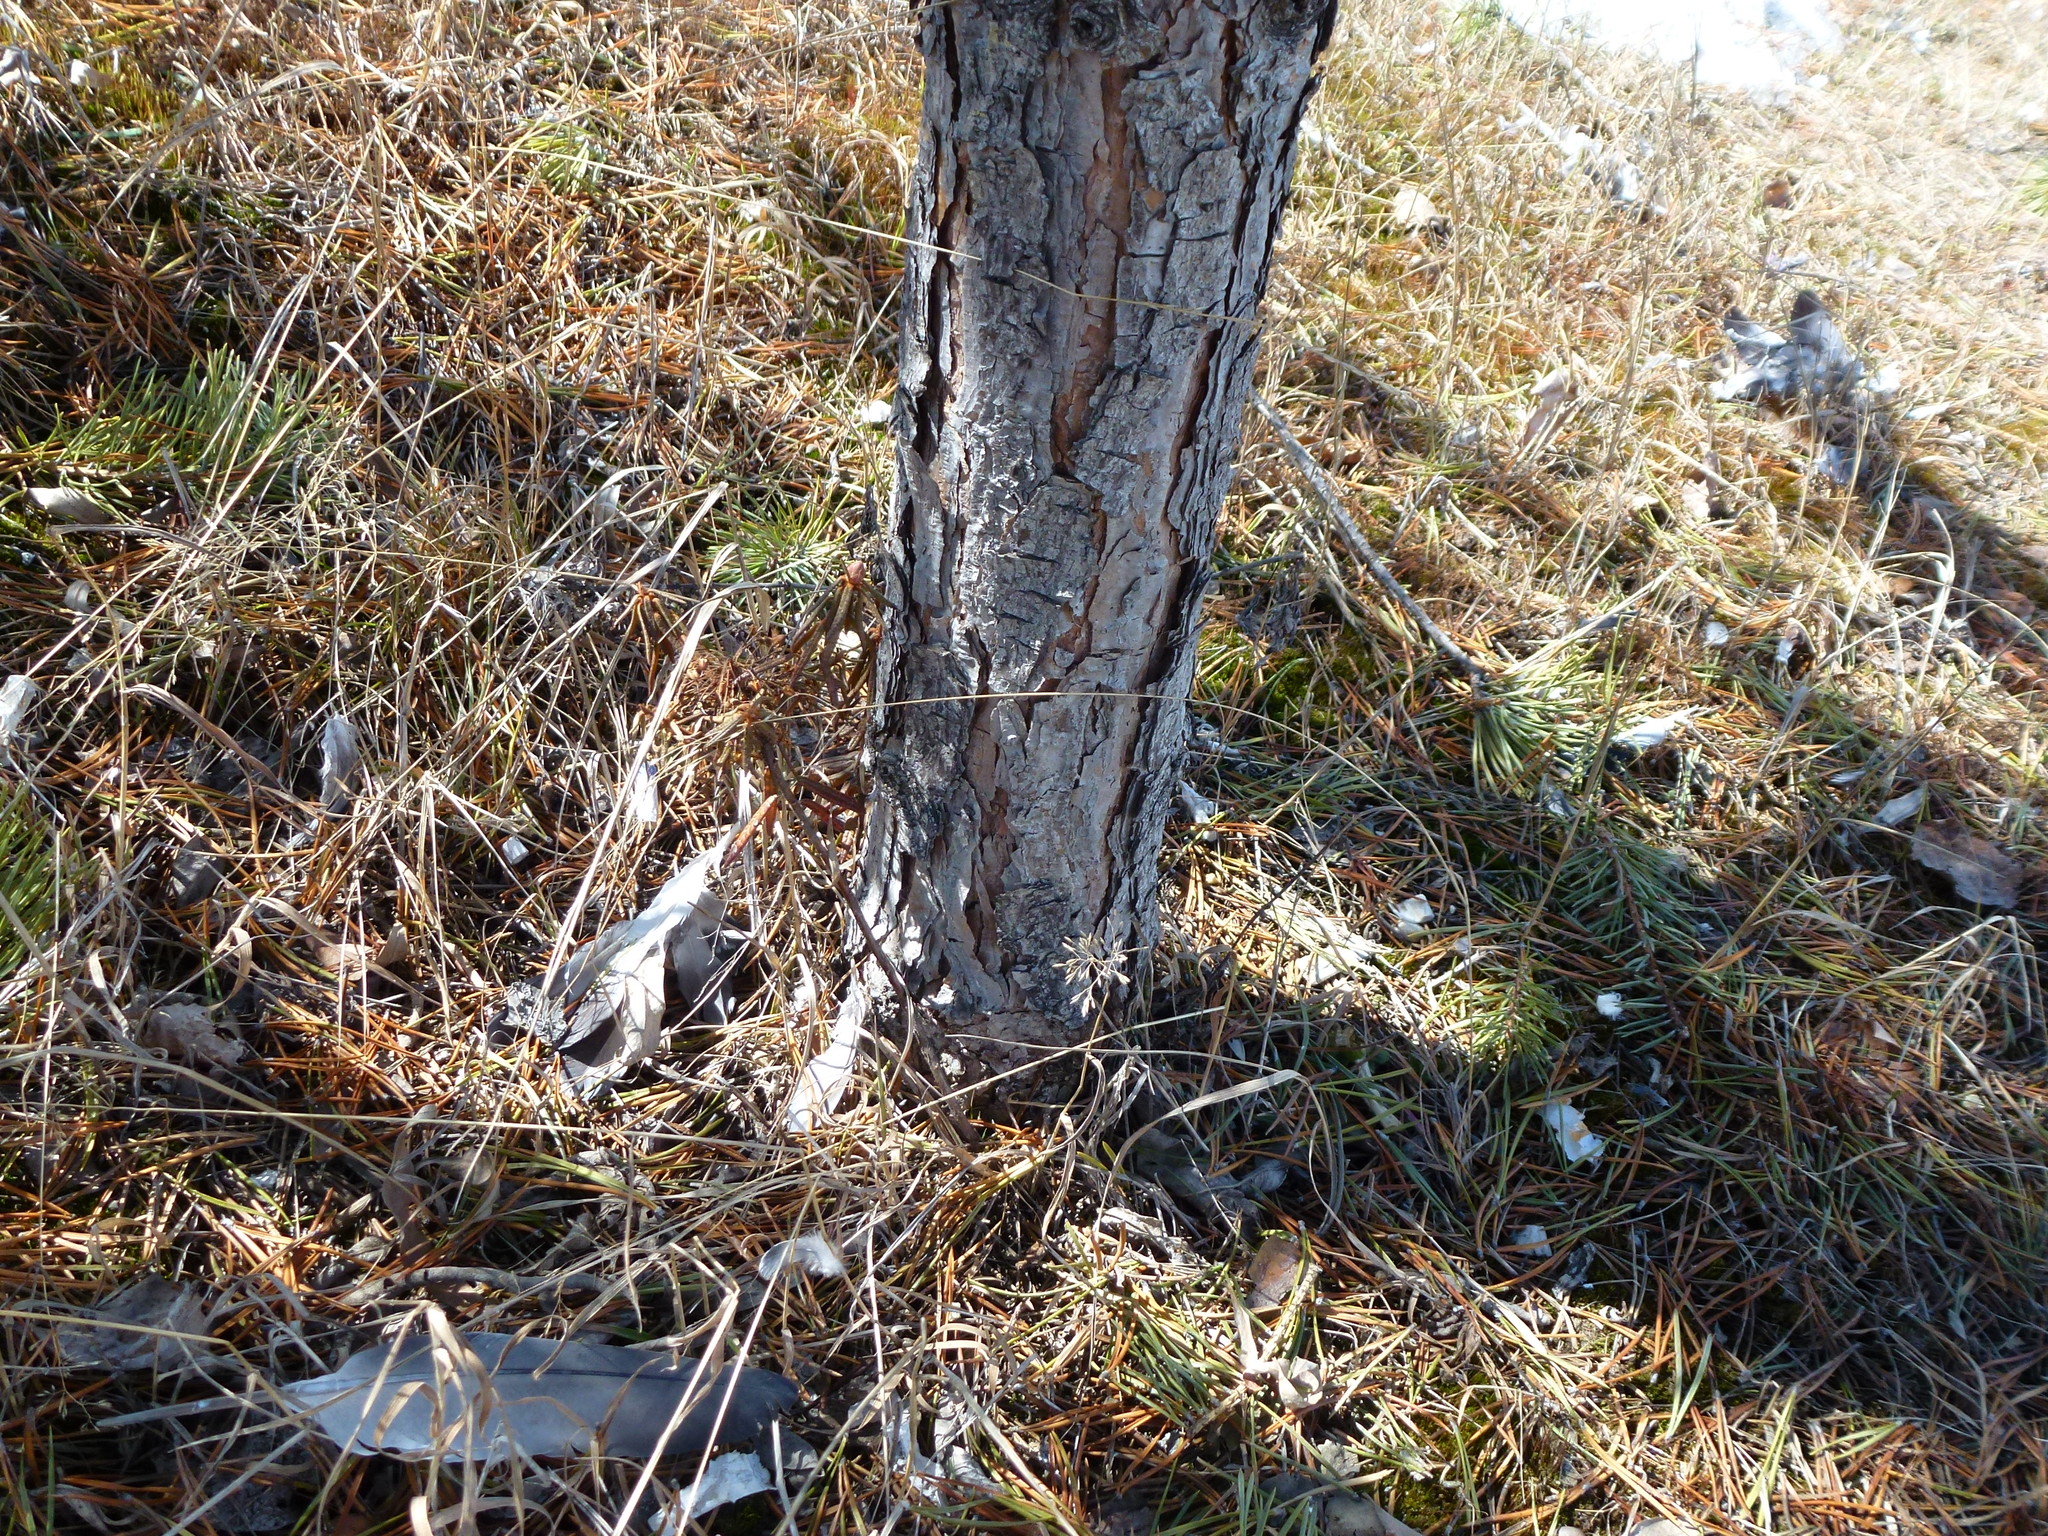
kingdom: Plantae
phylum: Tracheophyta
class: Magnoliopsida
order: Ericales
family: Ericaceae
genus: Rhododendron
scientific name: Rhododendron tomentosum
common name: Marsh labrador tea
